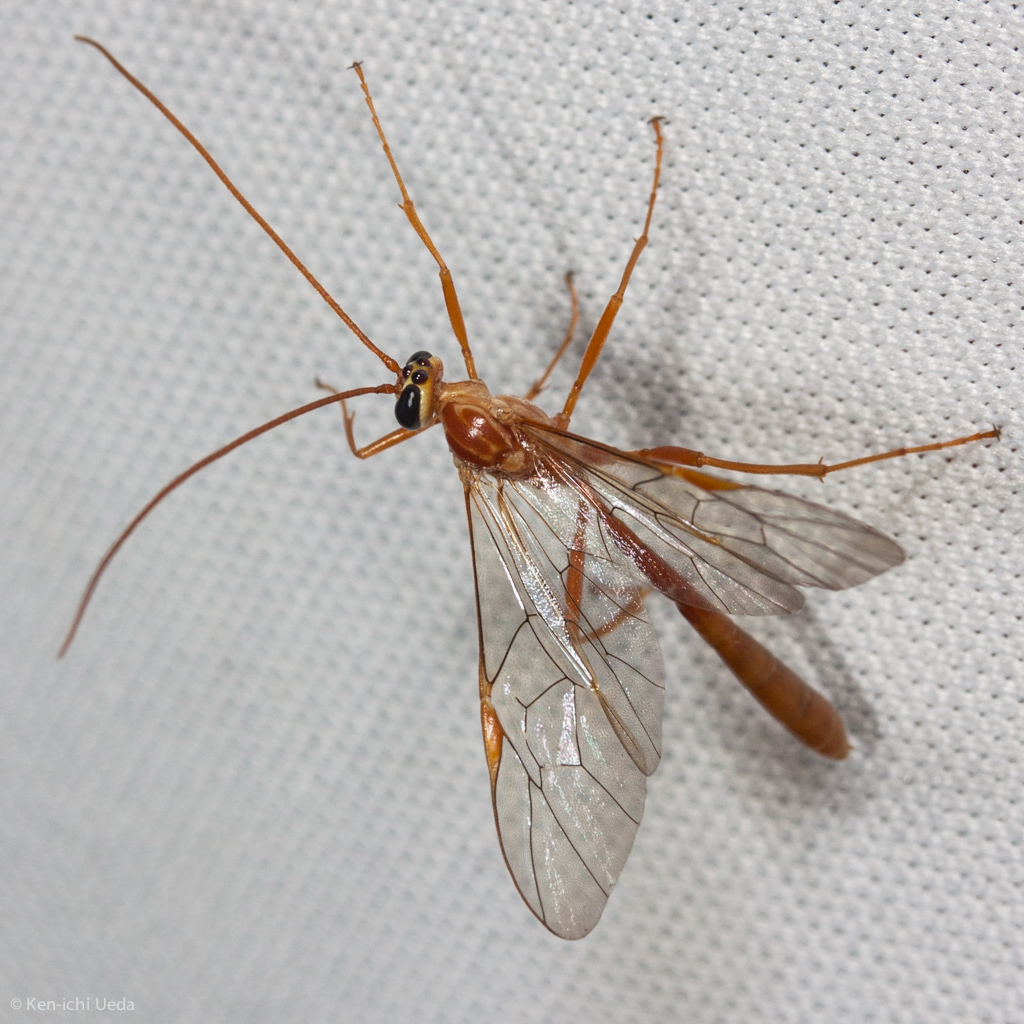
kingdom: Animalia
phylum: Arthropoda
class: Insecta
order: Hymenoptera
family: Ichneumonidae
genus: Ophion
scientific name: Ophion
